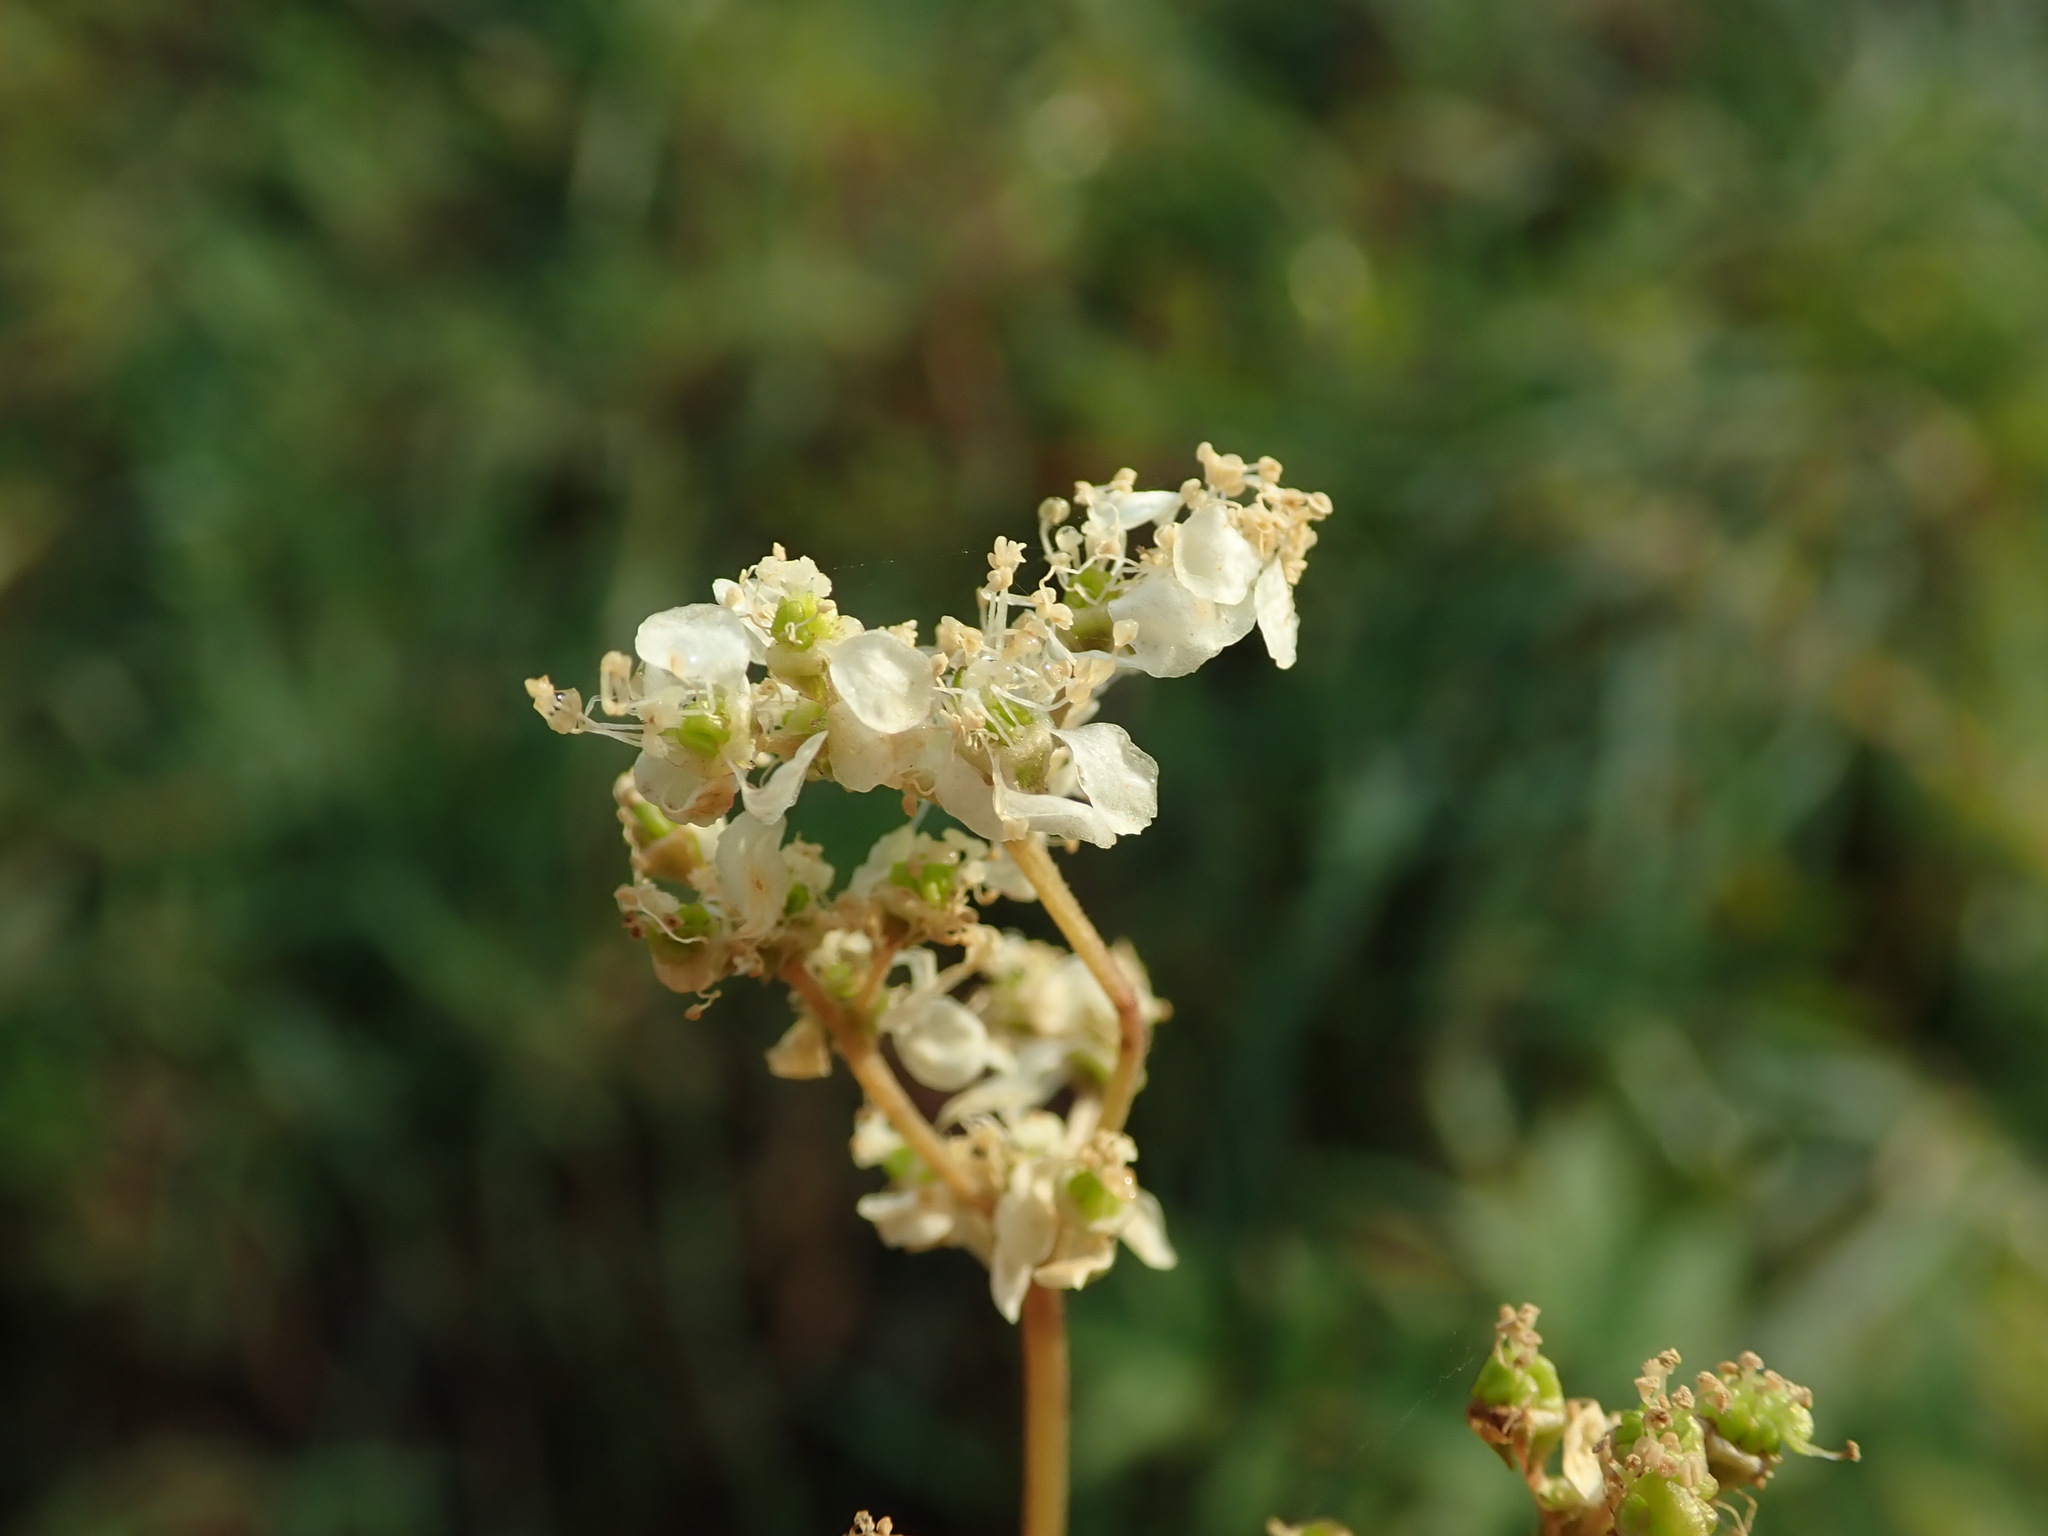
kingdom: Plantae
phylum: Tracheophyta
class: Magnoliopsida
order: Rosales
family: Rosaceae
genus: Filipendula
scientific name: Filipendula ulmaria
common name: Meadowsweet
